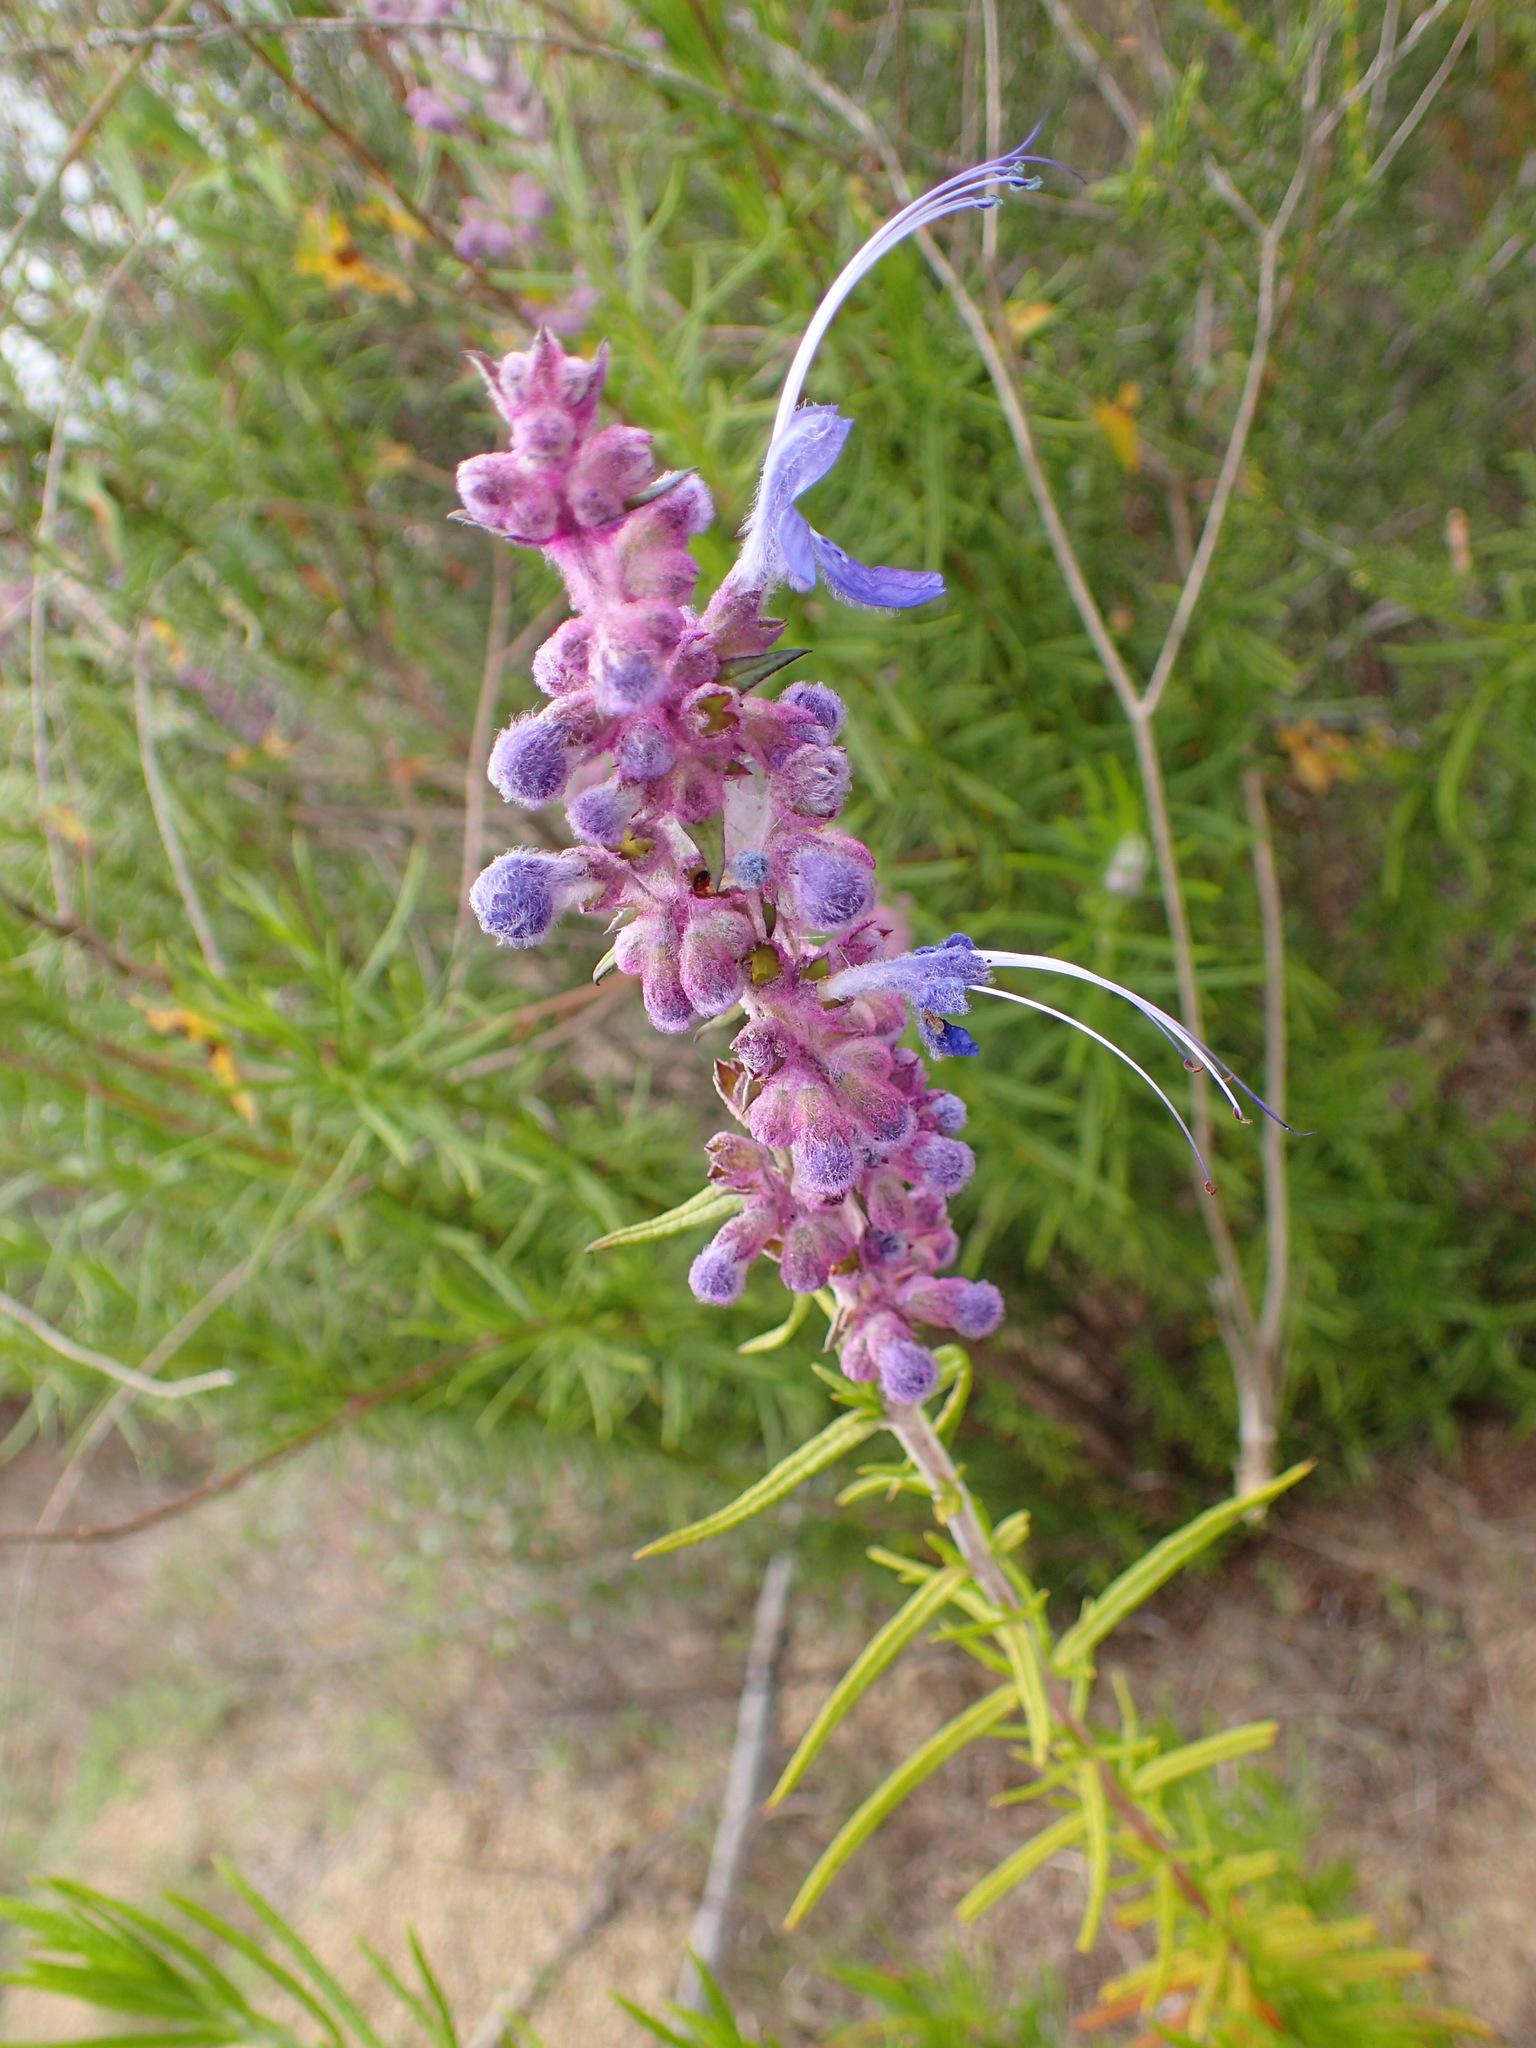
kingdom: Plantae
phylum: Tracheophyta
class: Magnoliopsida
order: Lamiales
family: Lamiaceae
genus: Trichostema
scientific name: Trichostema lanatum
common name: Woolly bluecurls
